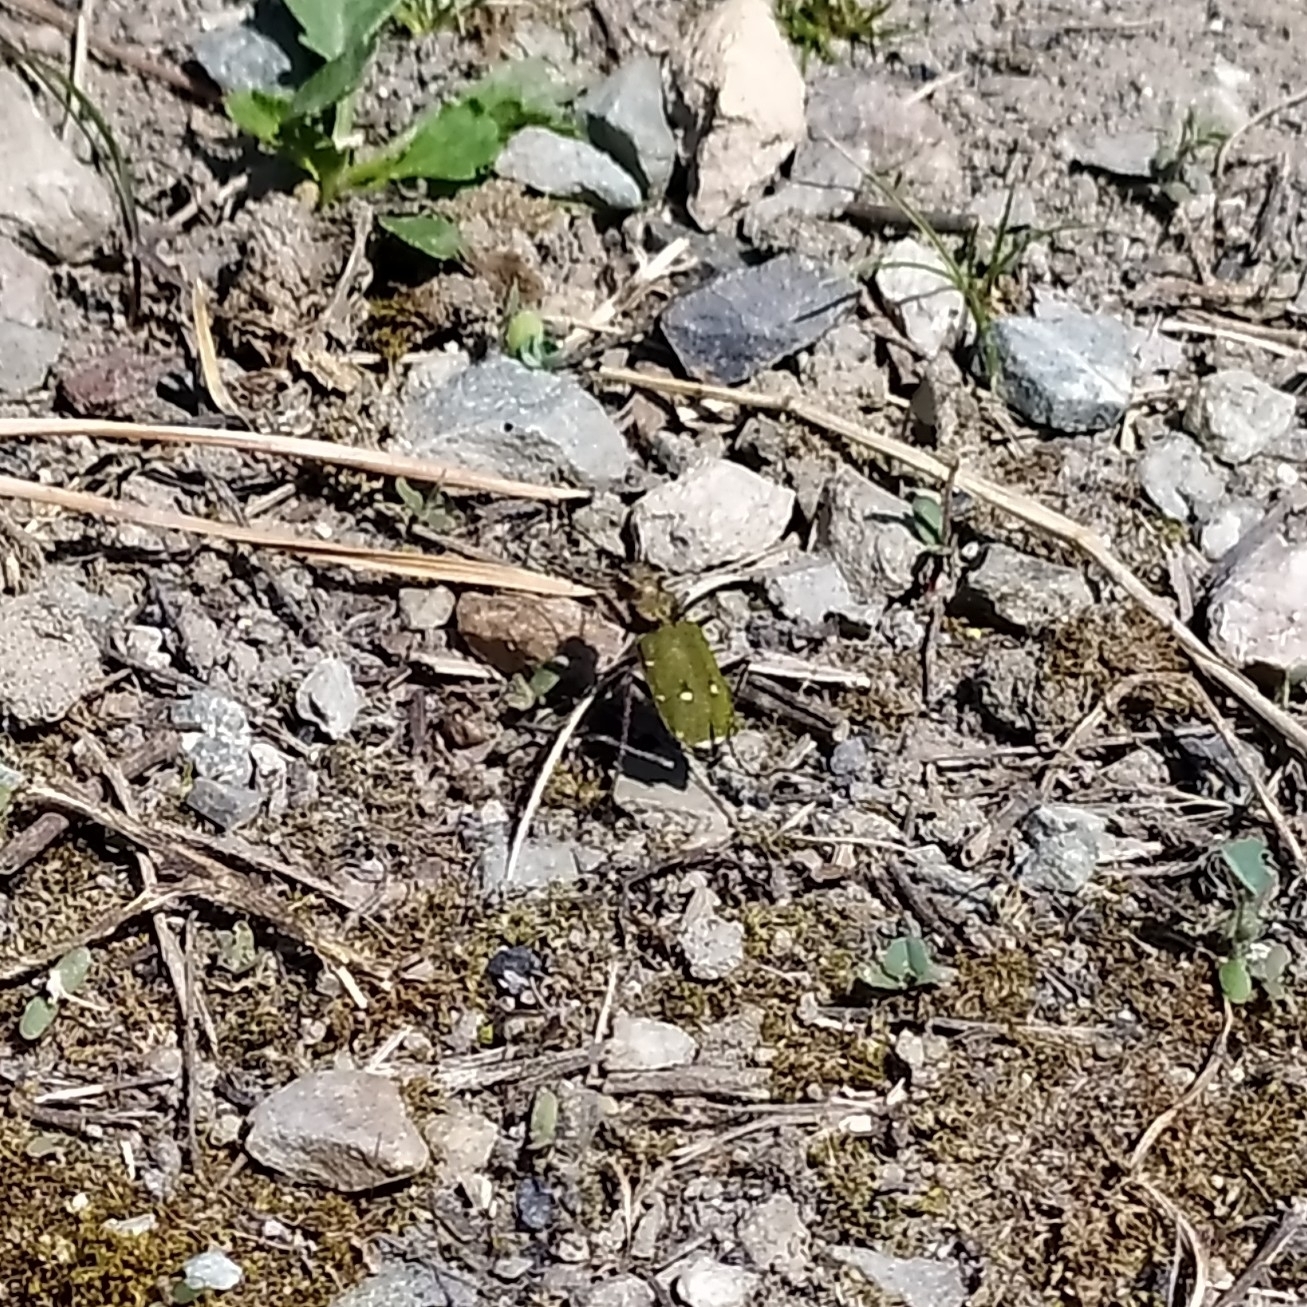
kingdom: Animalia
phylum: Arthropoda
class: Insecta
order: Coleoptera
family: Carabidae
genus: Cicindela
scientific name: Cicindela campestris
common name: Common tiger beetle
